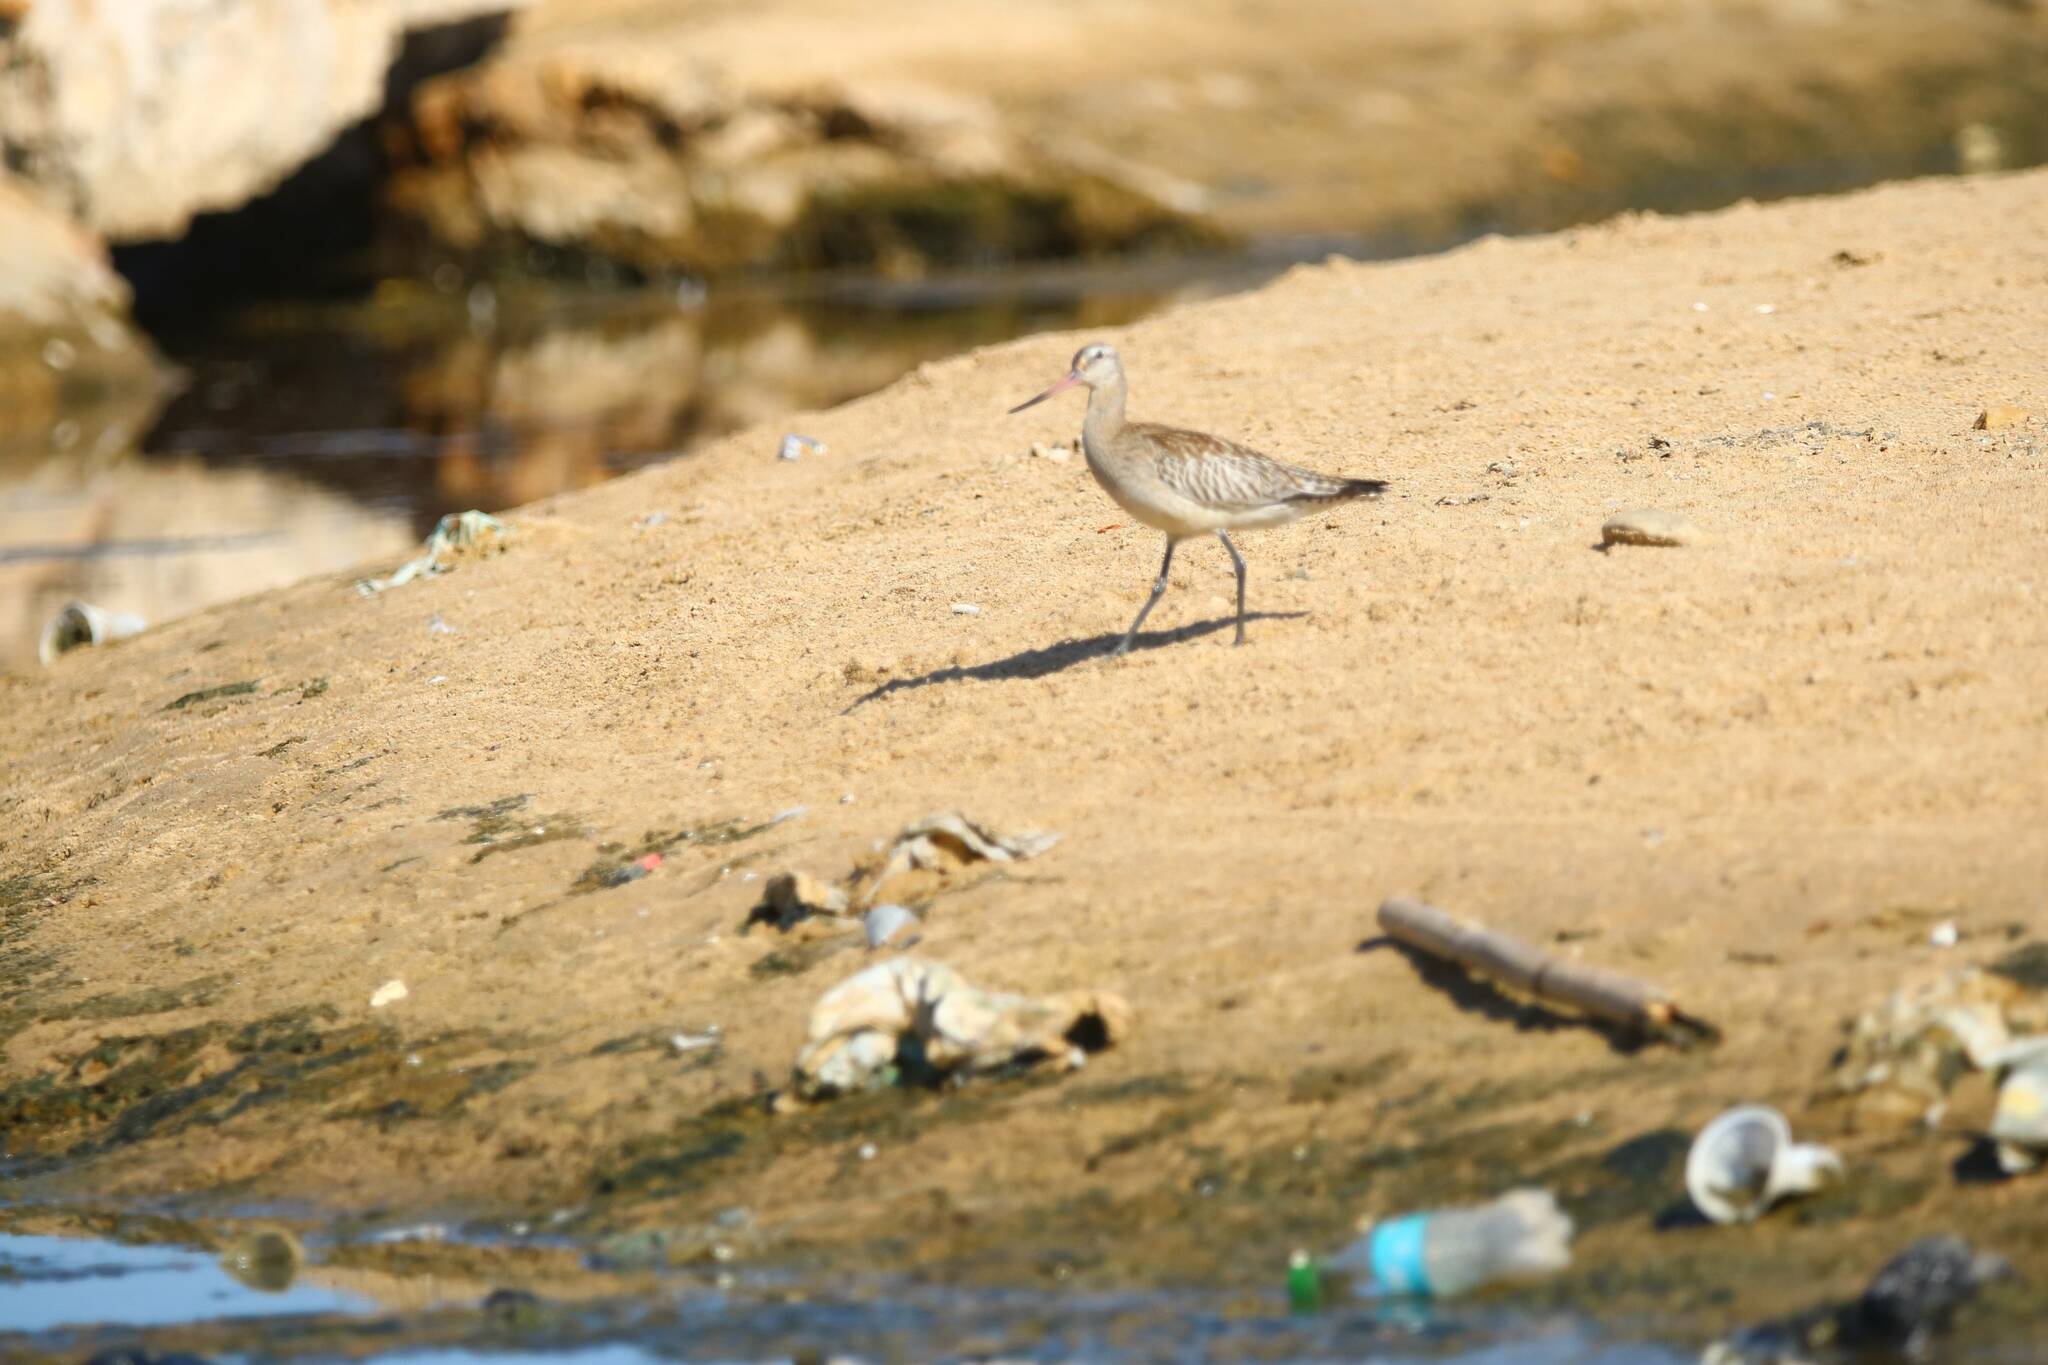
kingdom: Animalia
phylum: Chordata
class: Aves
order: Charadriiformes
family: Scolopacidae
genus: Limosa
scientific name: Limosa lapponica
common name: Bar-tailed godwit
